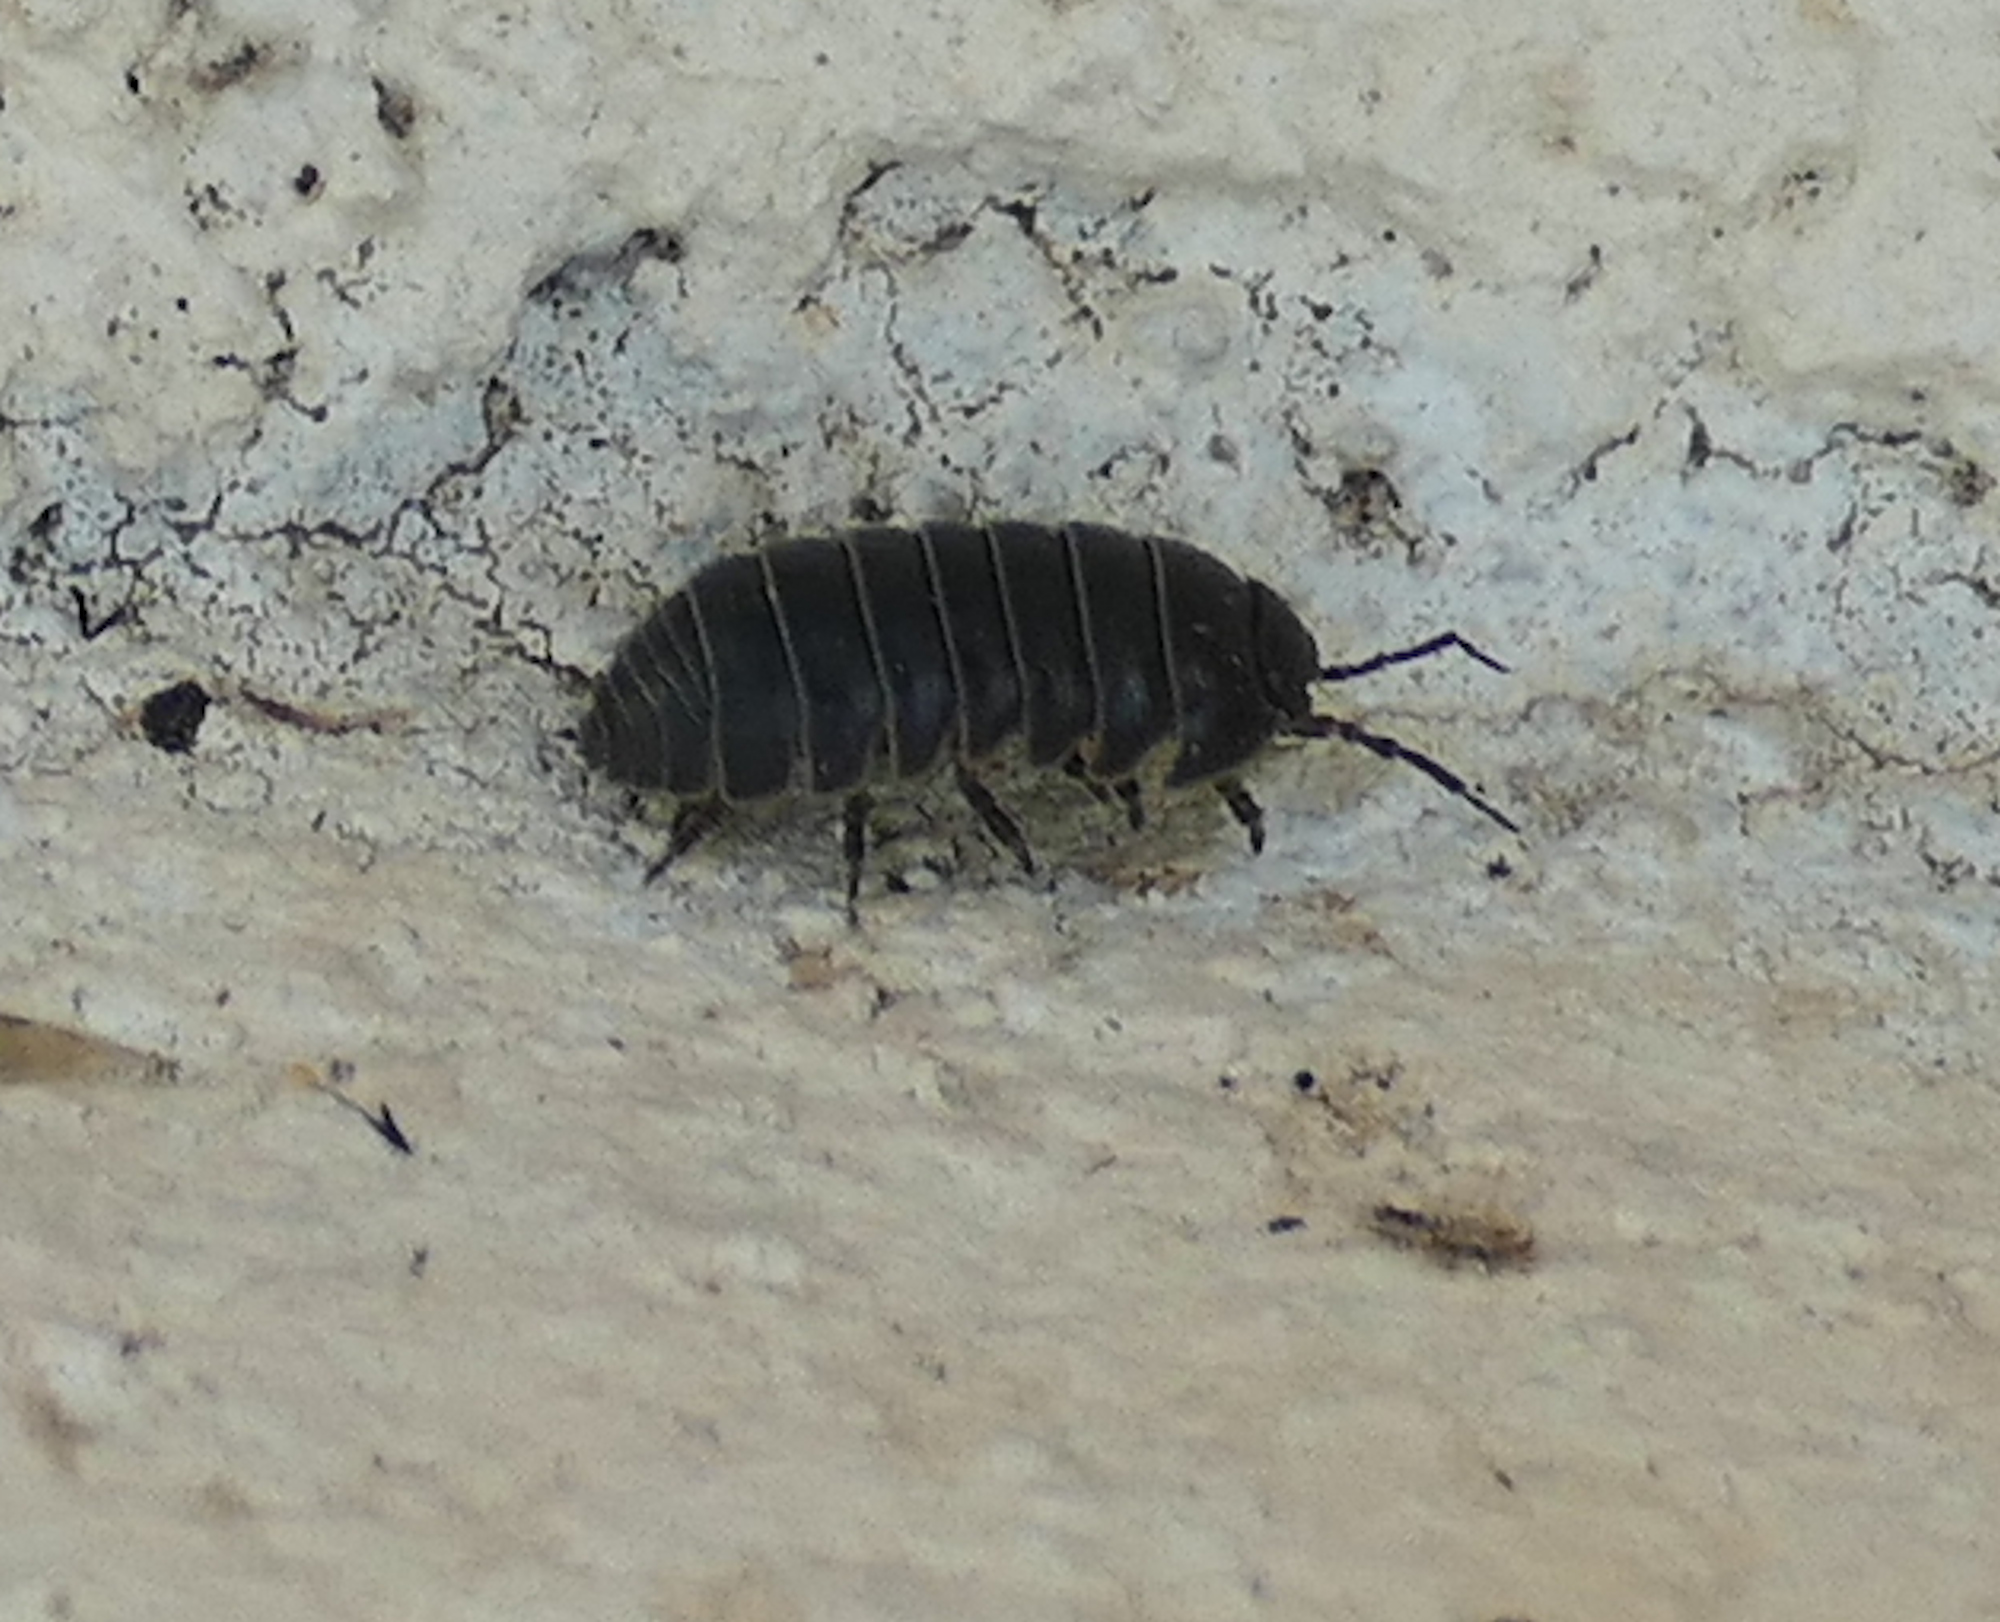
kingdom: Animalia
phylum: Arthropoda
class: Malacostraca
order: Isopoda
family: Armadillidiidae
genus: Armadillidium
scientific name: Armadillidium vulgare
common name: Common pill woodlouse
